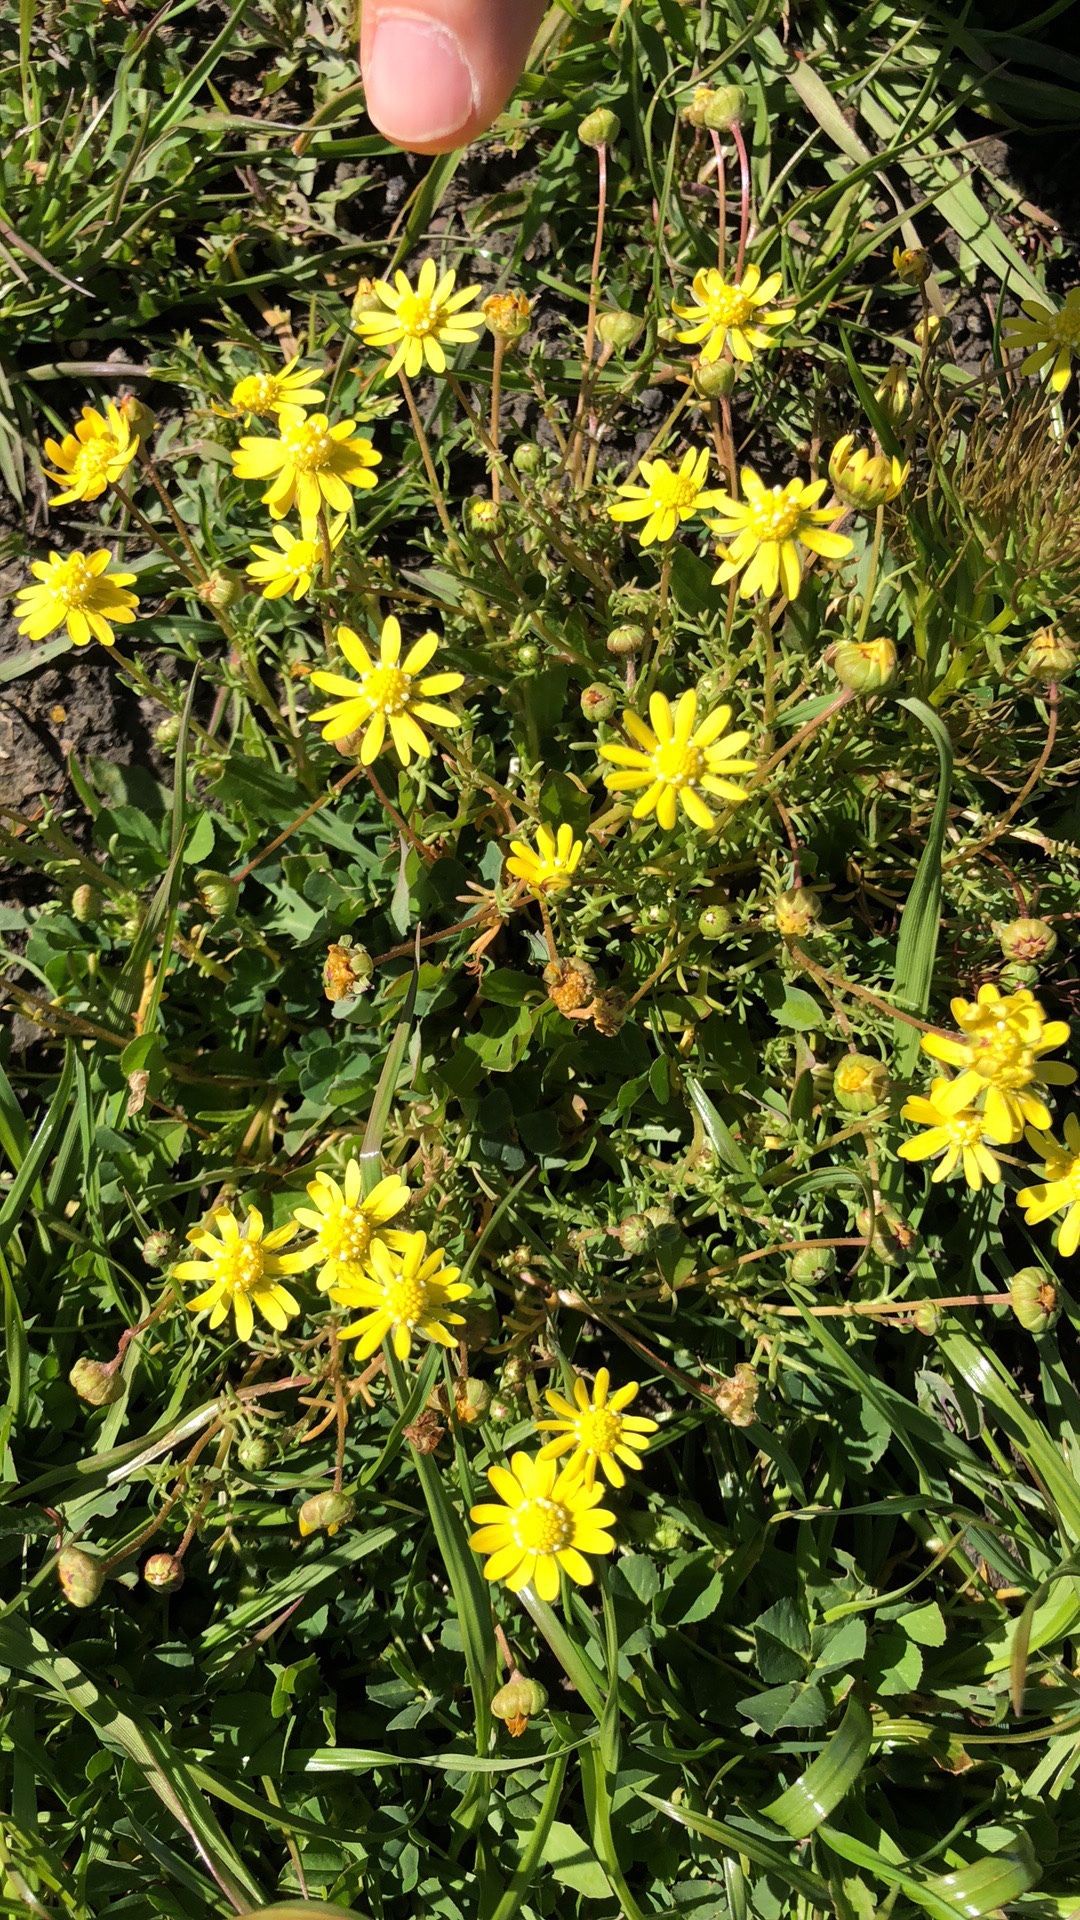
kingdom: Plantae
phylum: Tracheophyta
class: Magnoliopsida
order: Asterales
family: Asteraceae
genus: Blennosperma
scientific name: Blennosperma nanum
